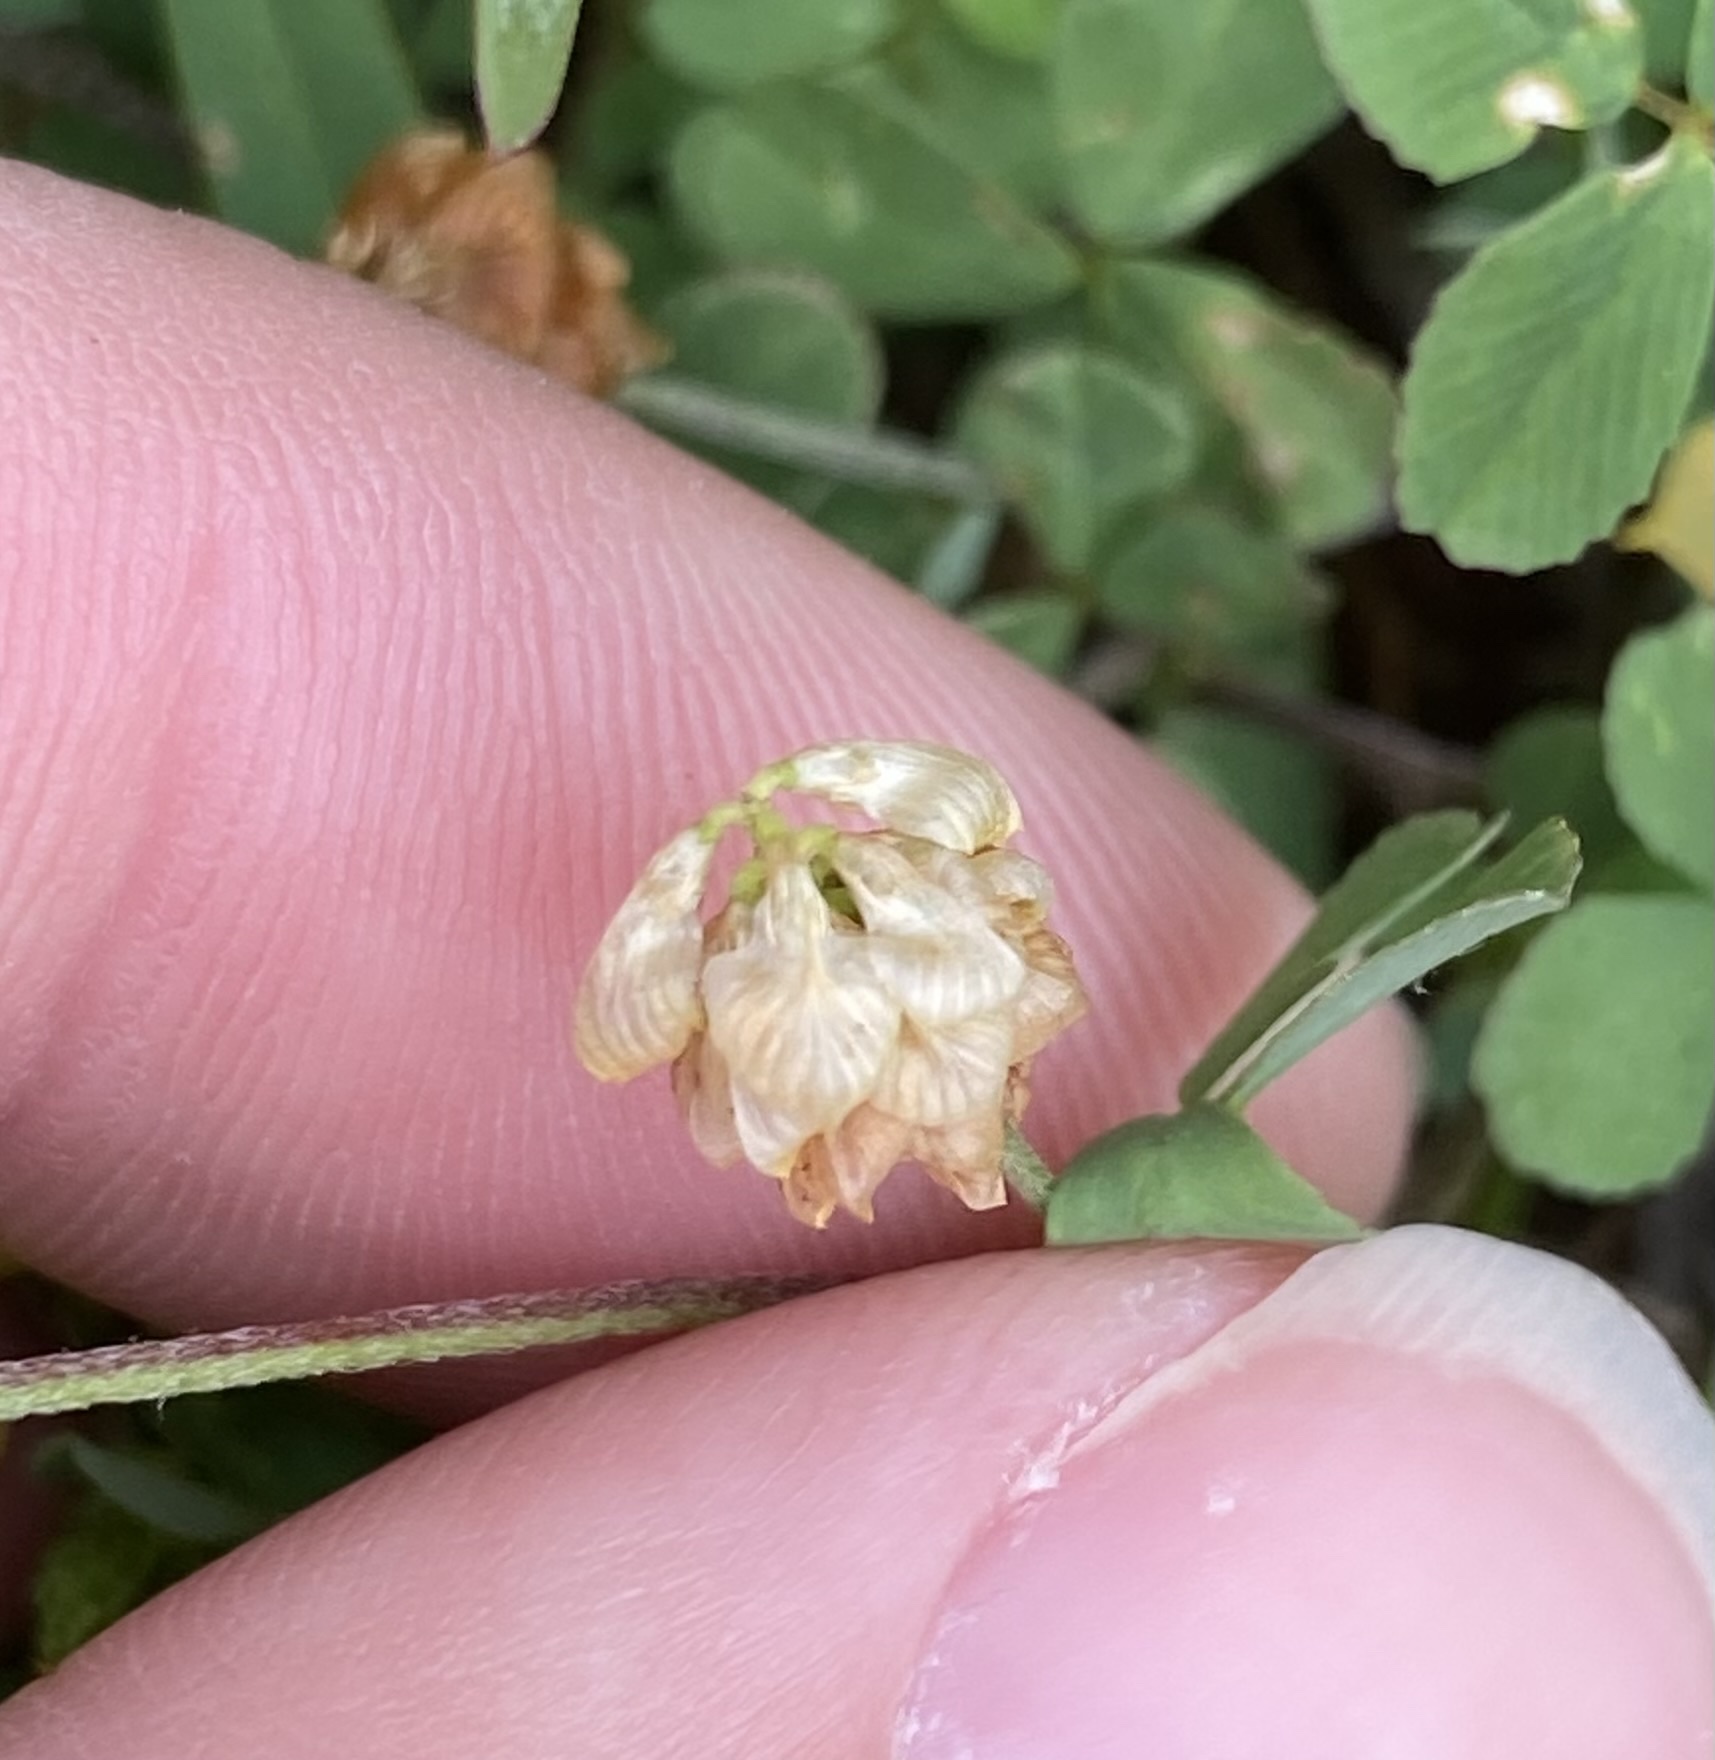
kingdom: Plantae
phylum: Tracheophyta
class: Magnoliopsida
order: Fabales
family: Fabaceae
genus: Trifolium
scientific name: Trifolium campestre
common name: Field clover
